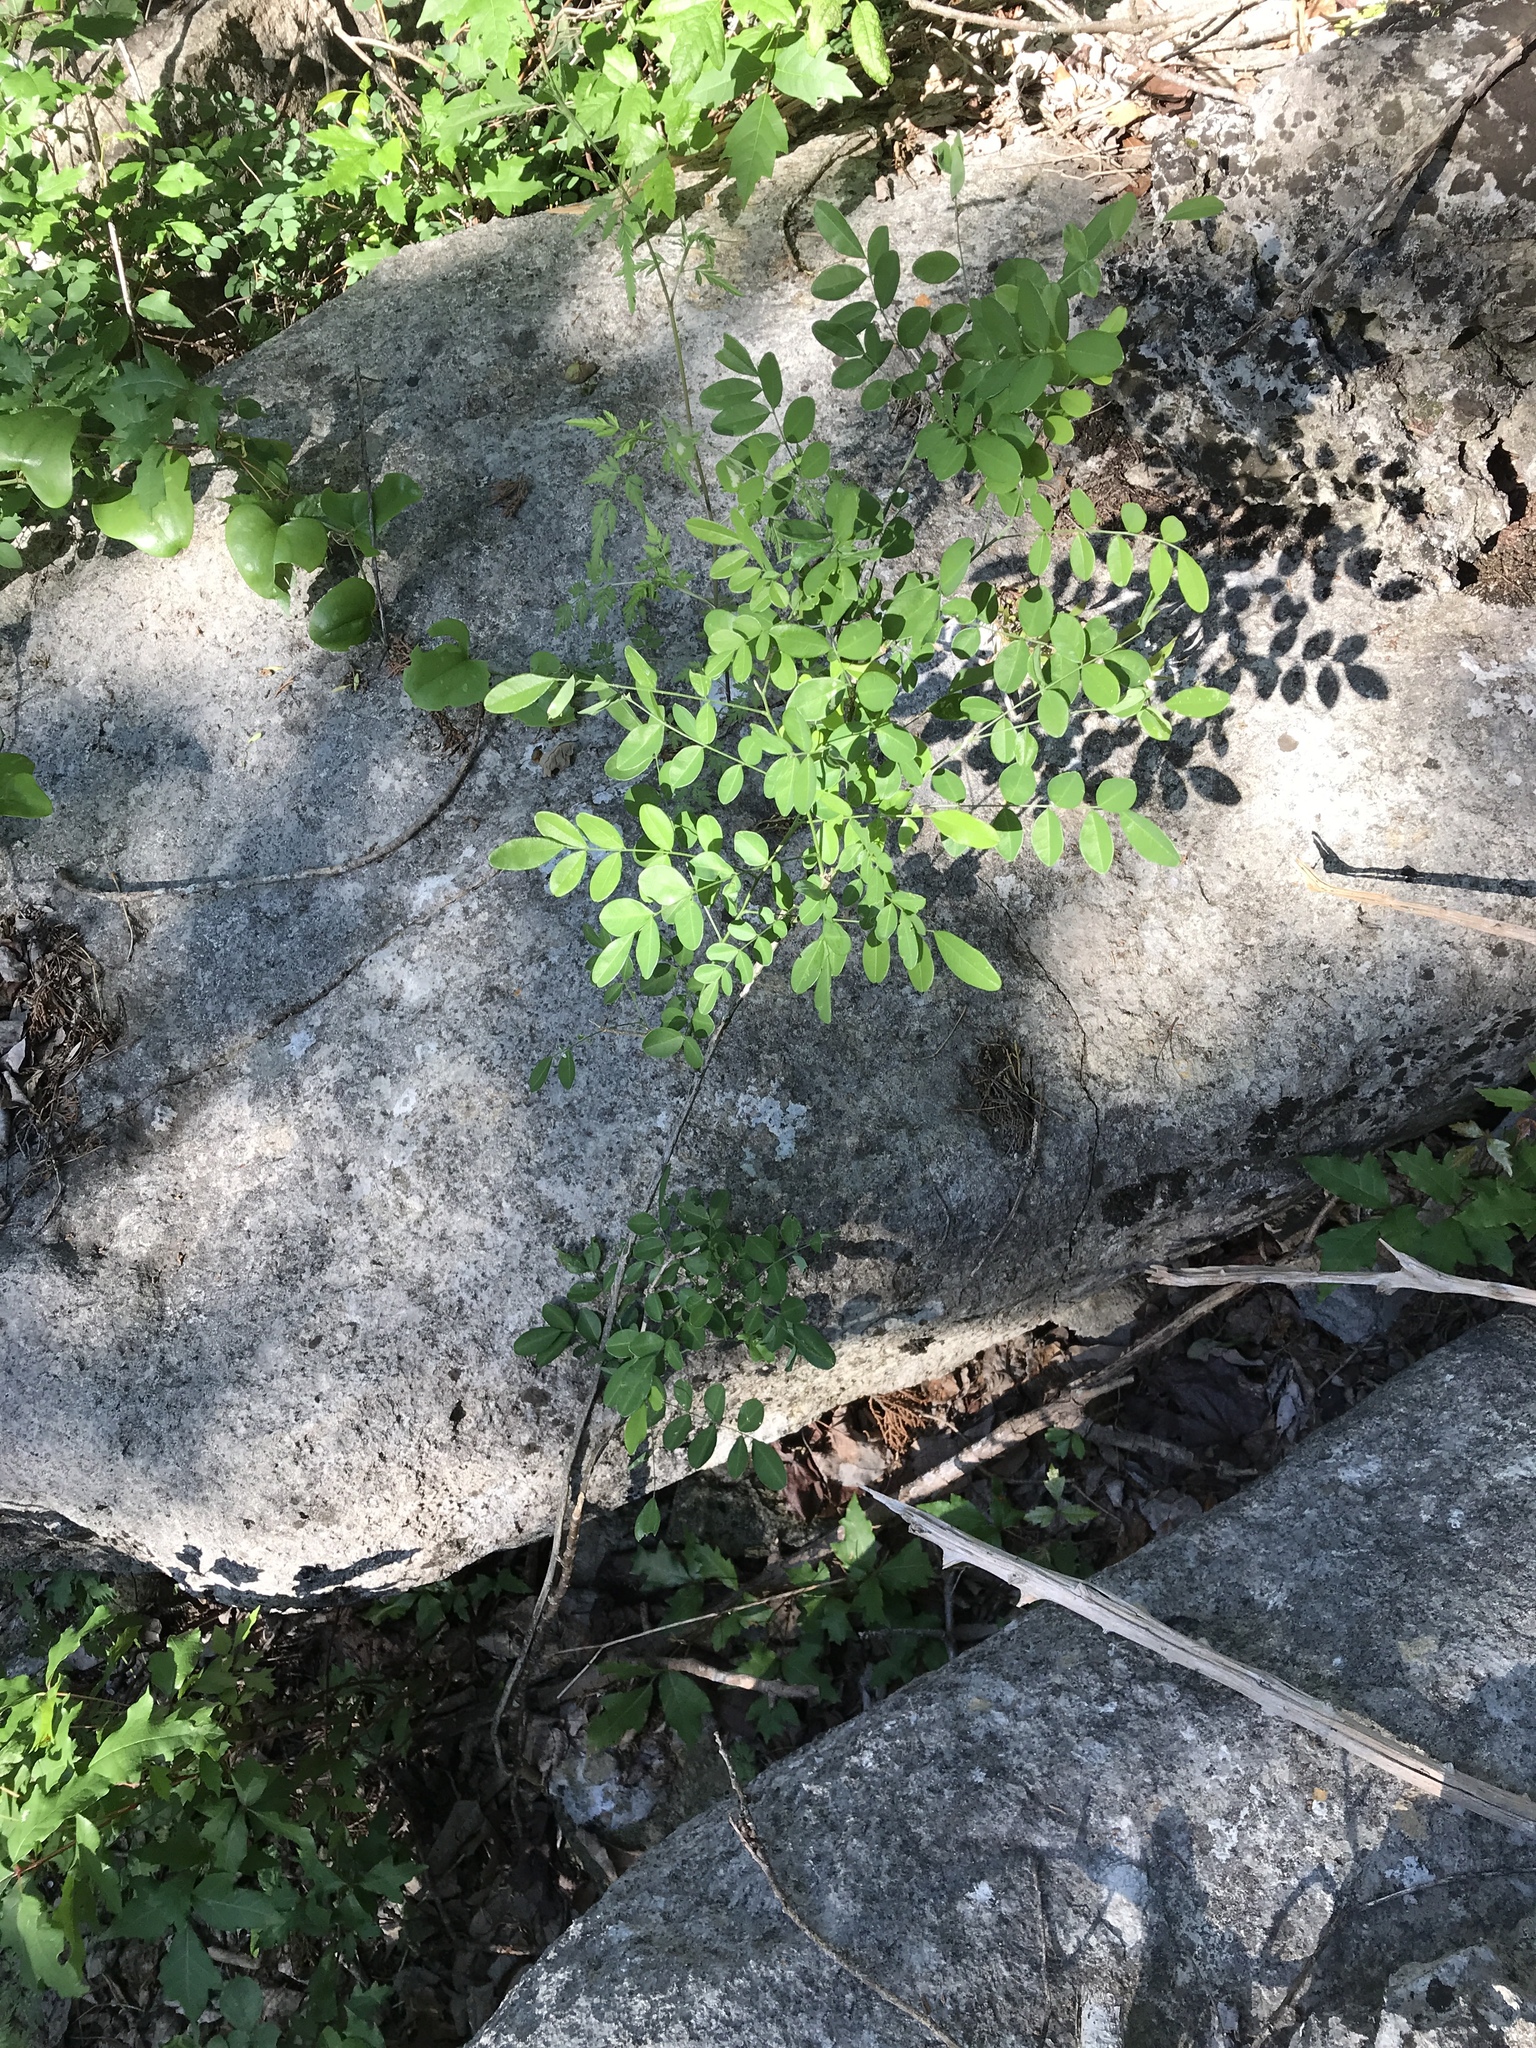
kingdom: Plantae
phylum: Tracheophyta
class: Magnoliopsida
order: Fabales
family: Fabaceae
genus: Styphnolobium
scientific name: Styphnolobium affine
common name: Texas sophora
